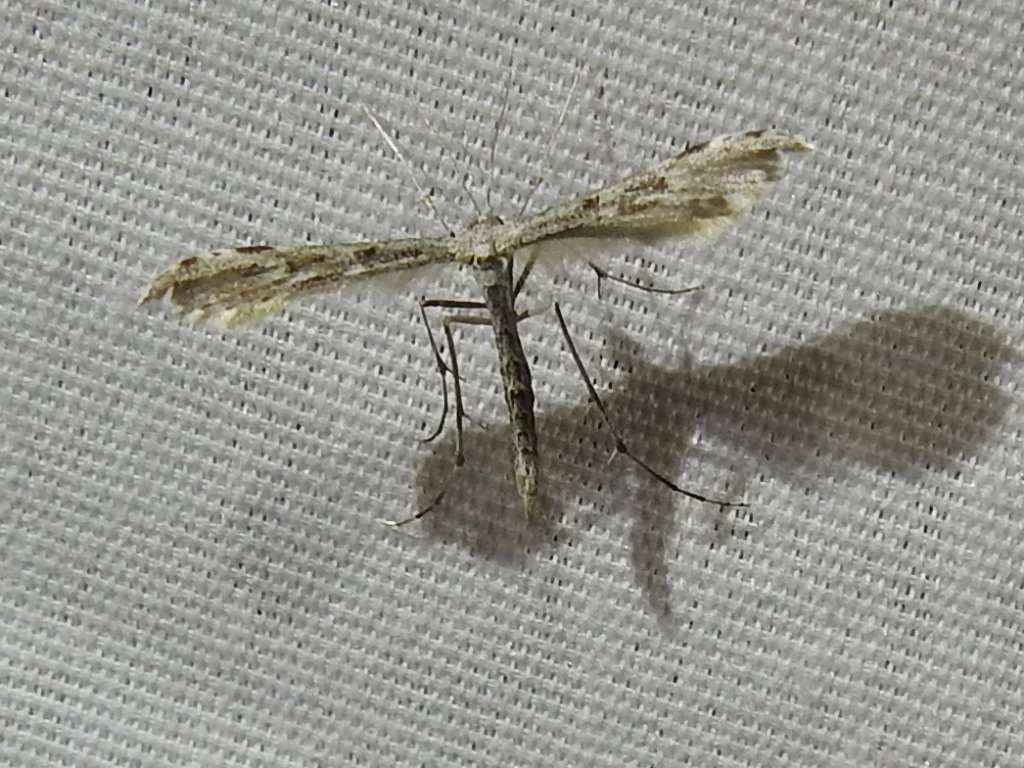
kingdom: Animalia
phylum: Arthropoda
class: Insecta
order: Lepidoptera
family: Pterophoridae
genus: Hellinsia
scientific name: Hellinsia inquinatus
